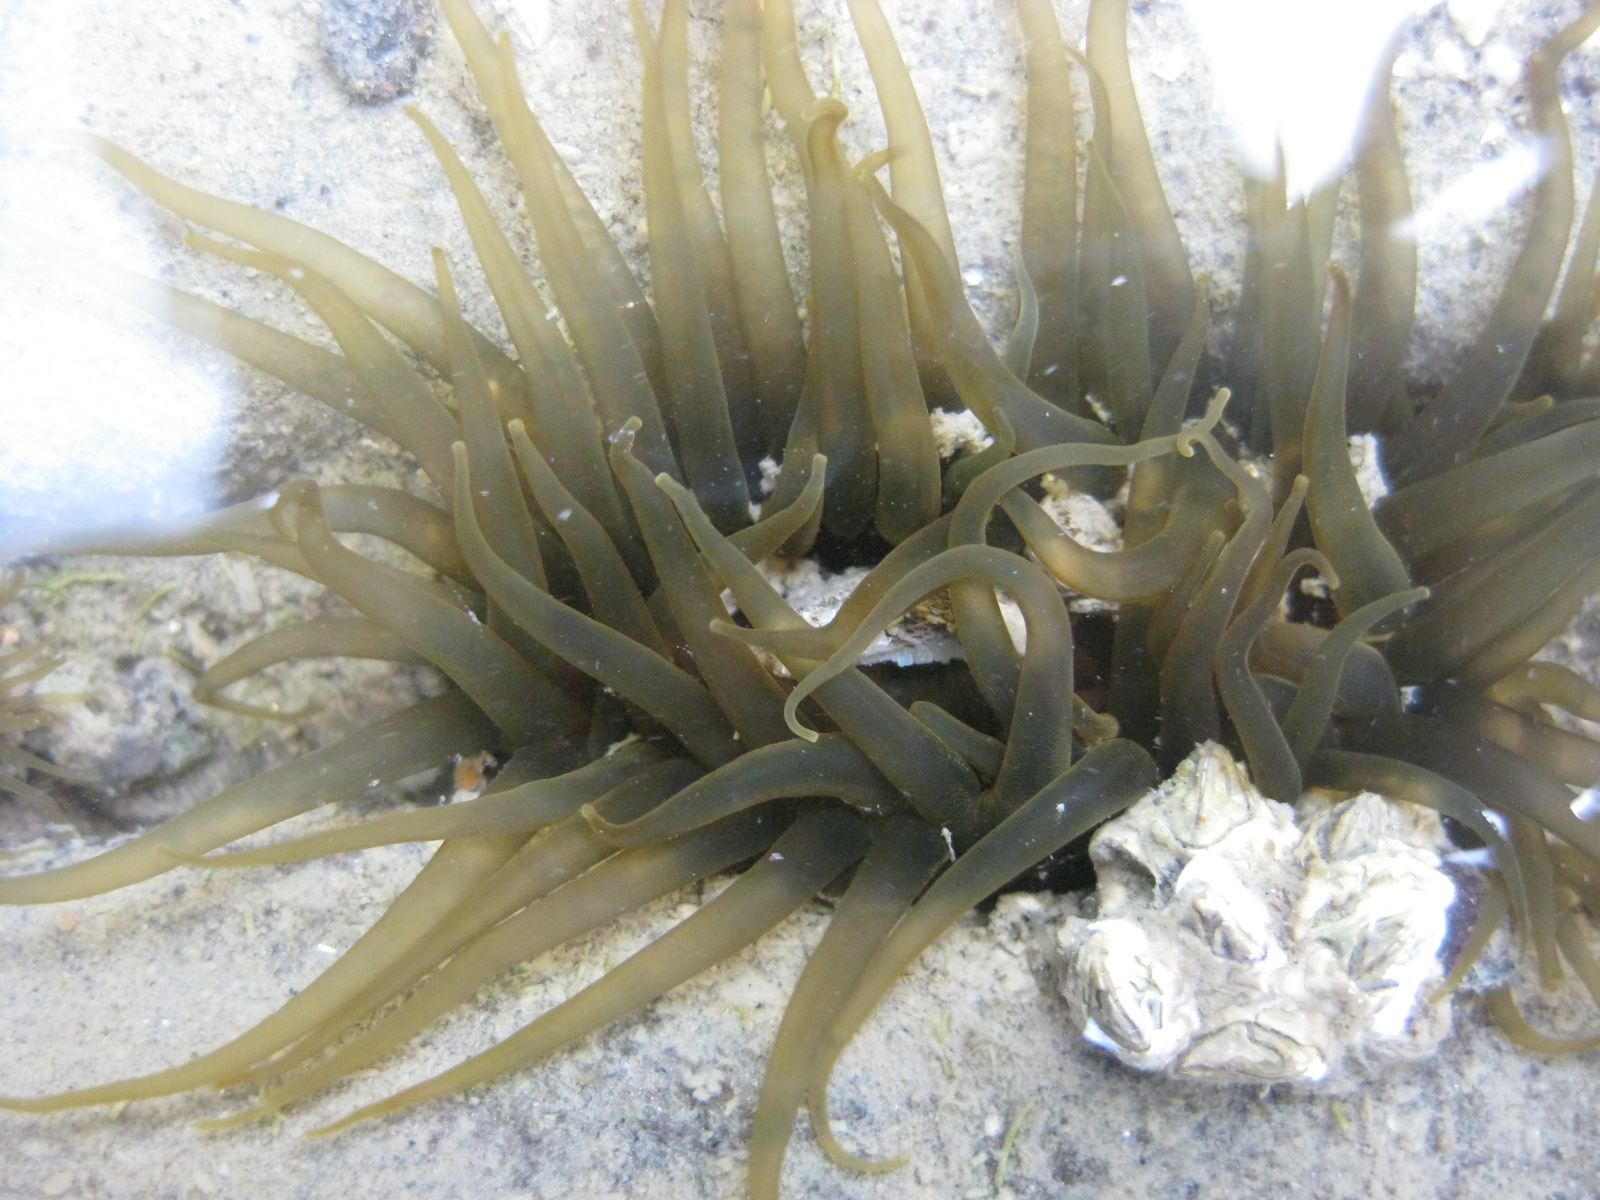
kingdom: Animalia
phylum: Cnidaria
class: Anthozoa
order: Actiniaria
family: Actiniidae
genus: Isactinia
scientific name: Isactinia olivacea
